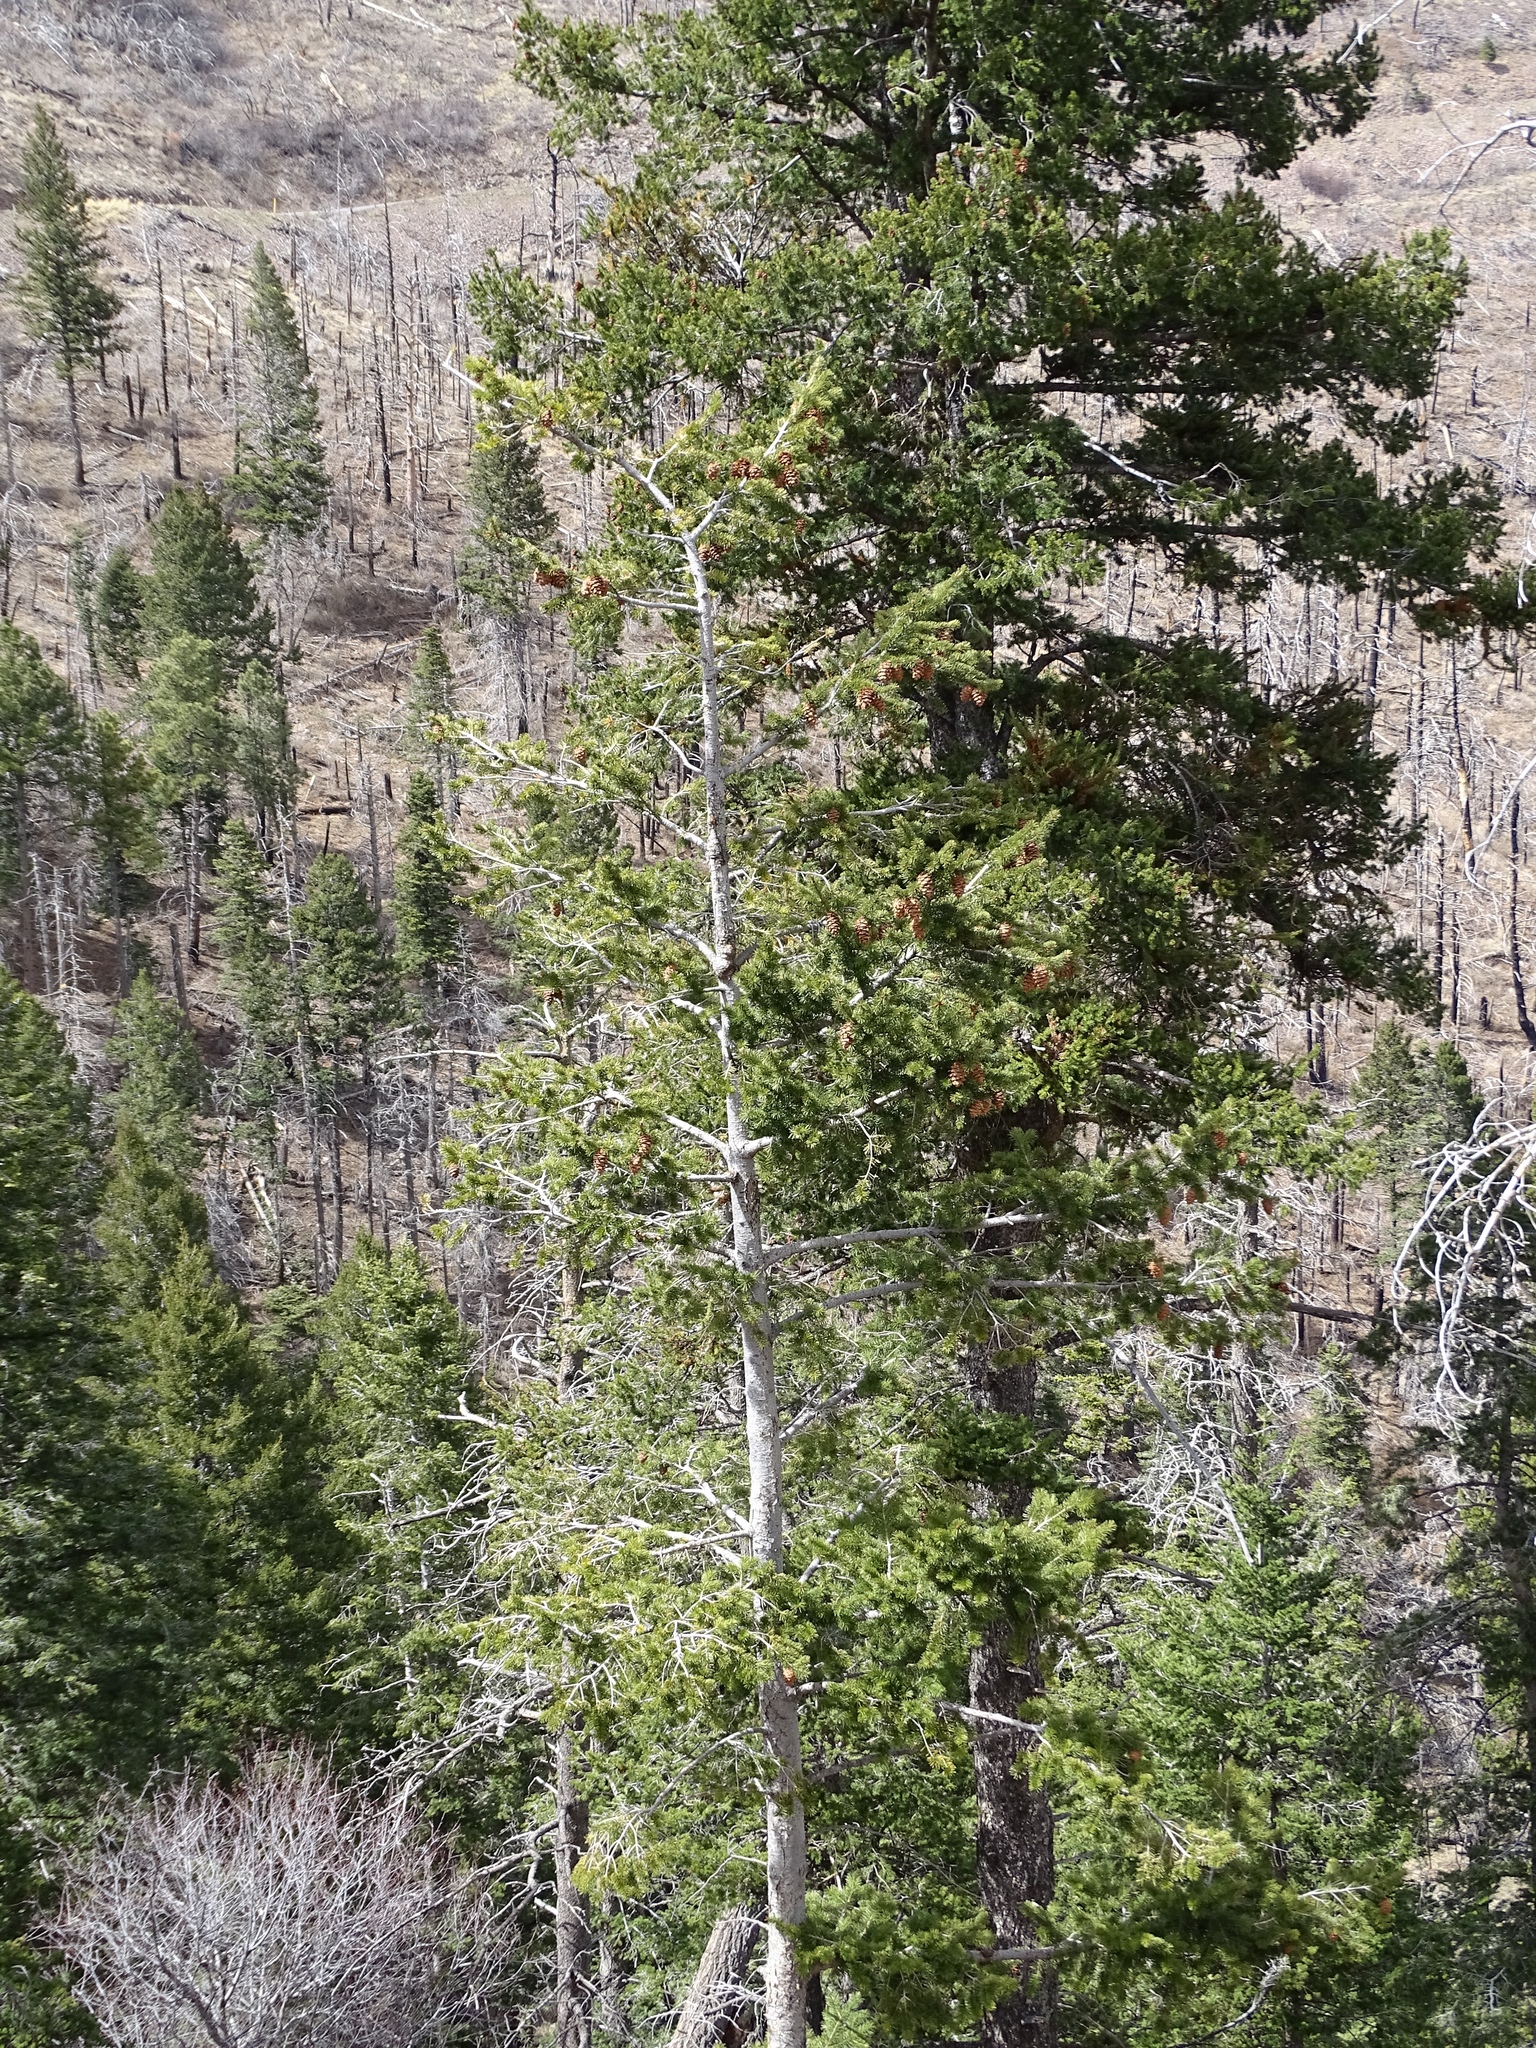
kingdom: Plantae
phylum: Tracheophyta
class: Pinopsida
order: Pinales
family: Pinaceae
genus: Abies
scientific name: Abies concolor
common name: Colorado fir
